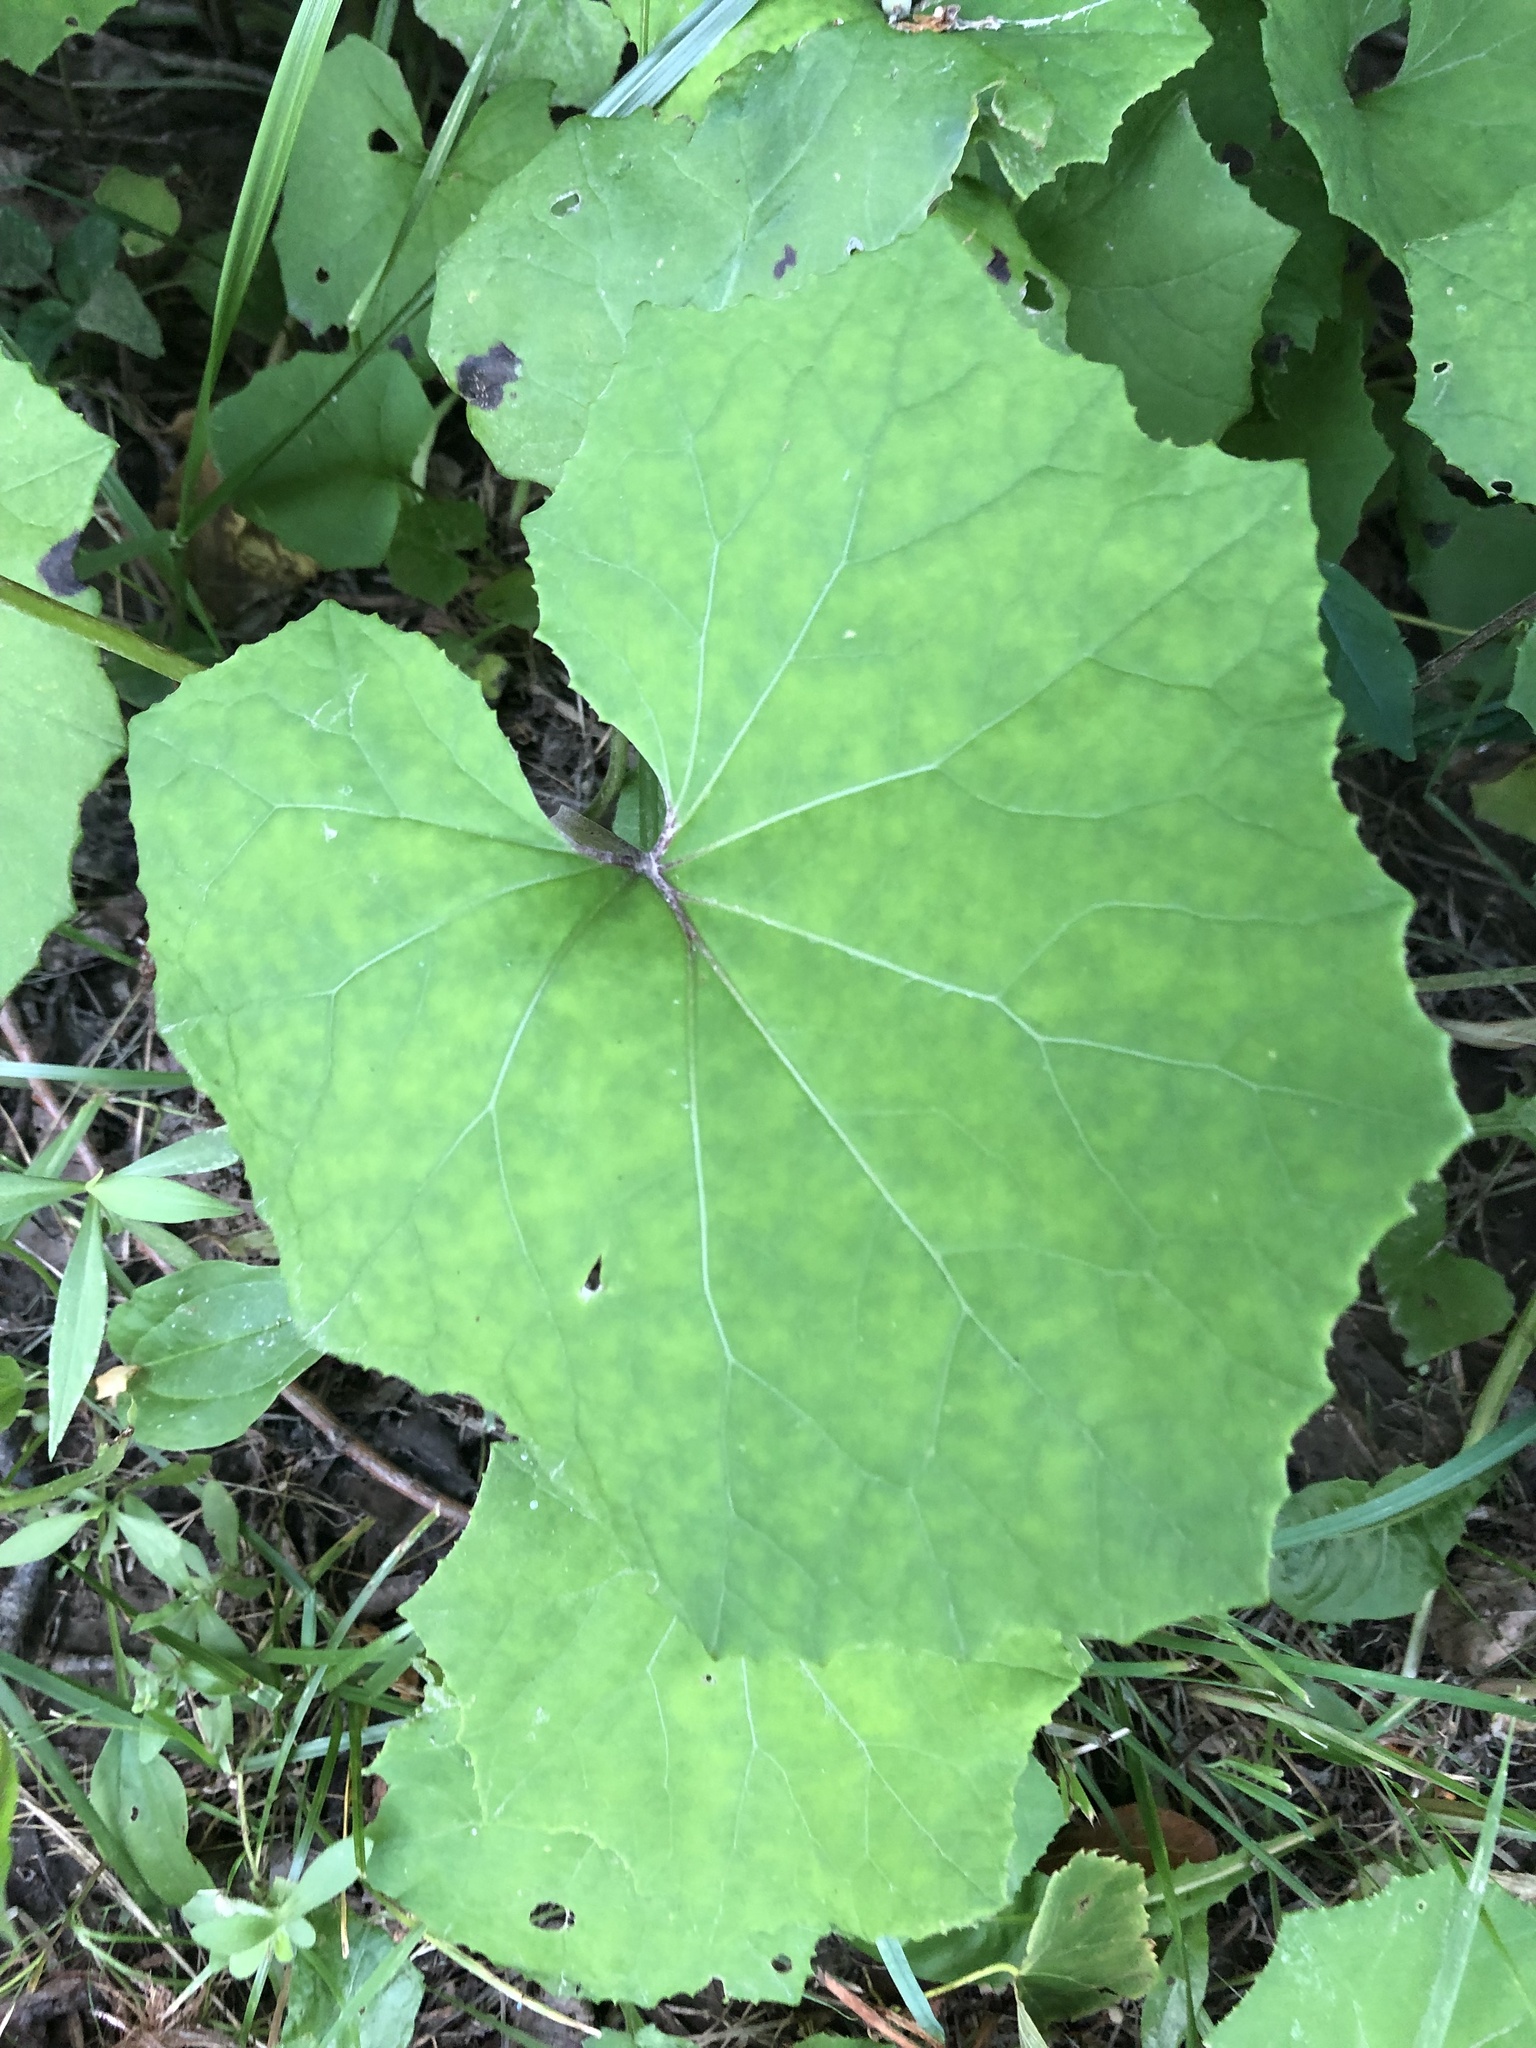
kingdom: Plantae
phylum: Tracheophyta
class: Magnoliopsida
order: Asterales
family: Asteraceae
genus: Tussilago
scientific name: Tussilago farfara
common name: Coltsfoot
